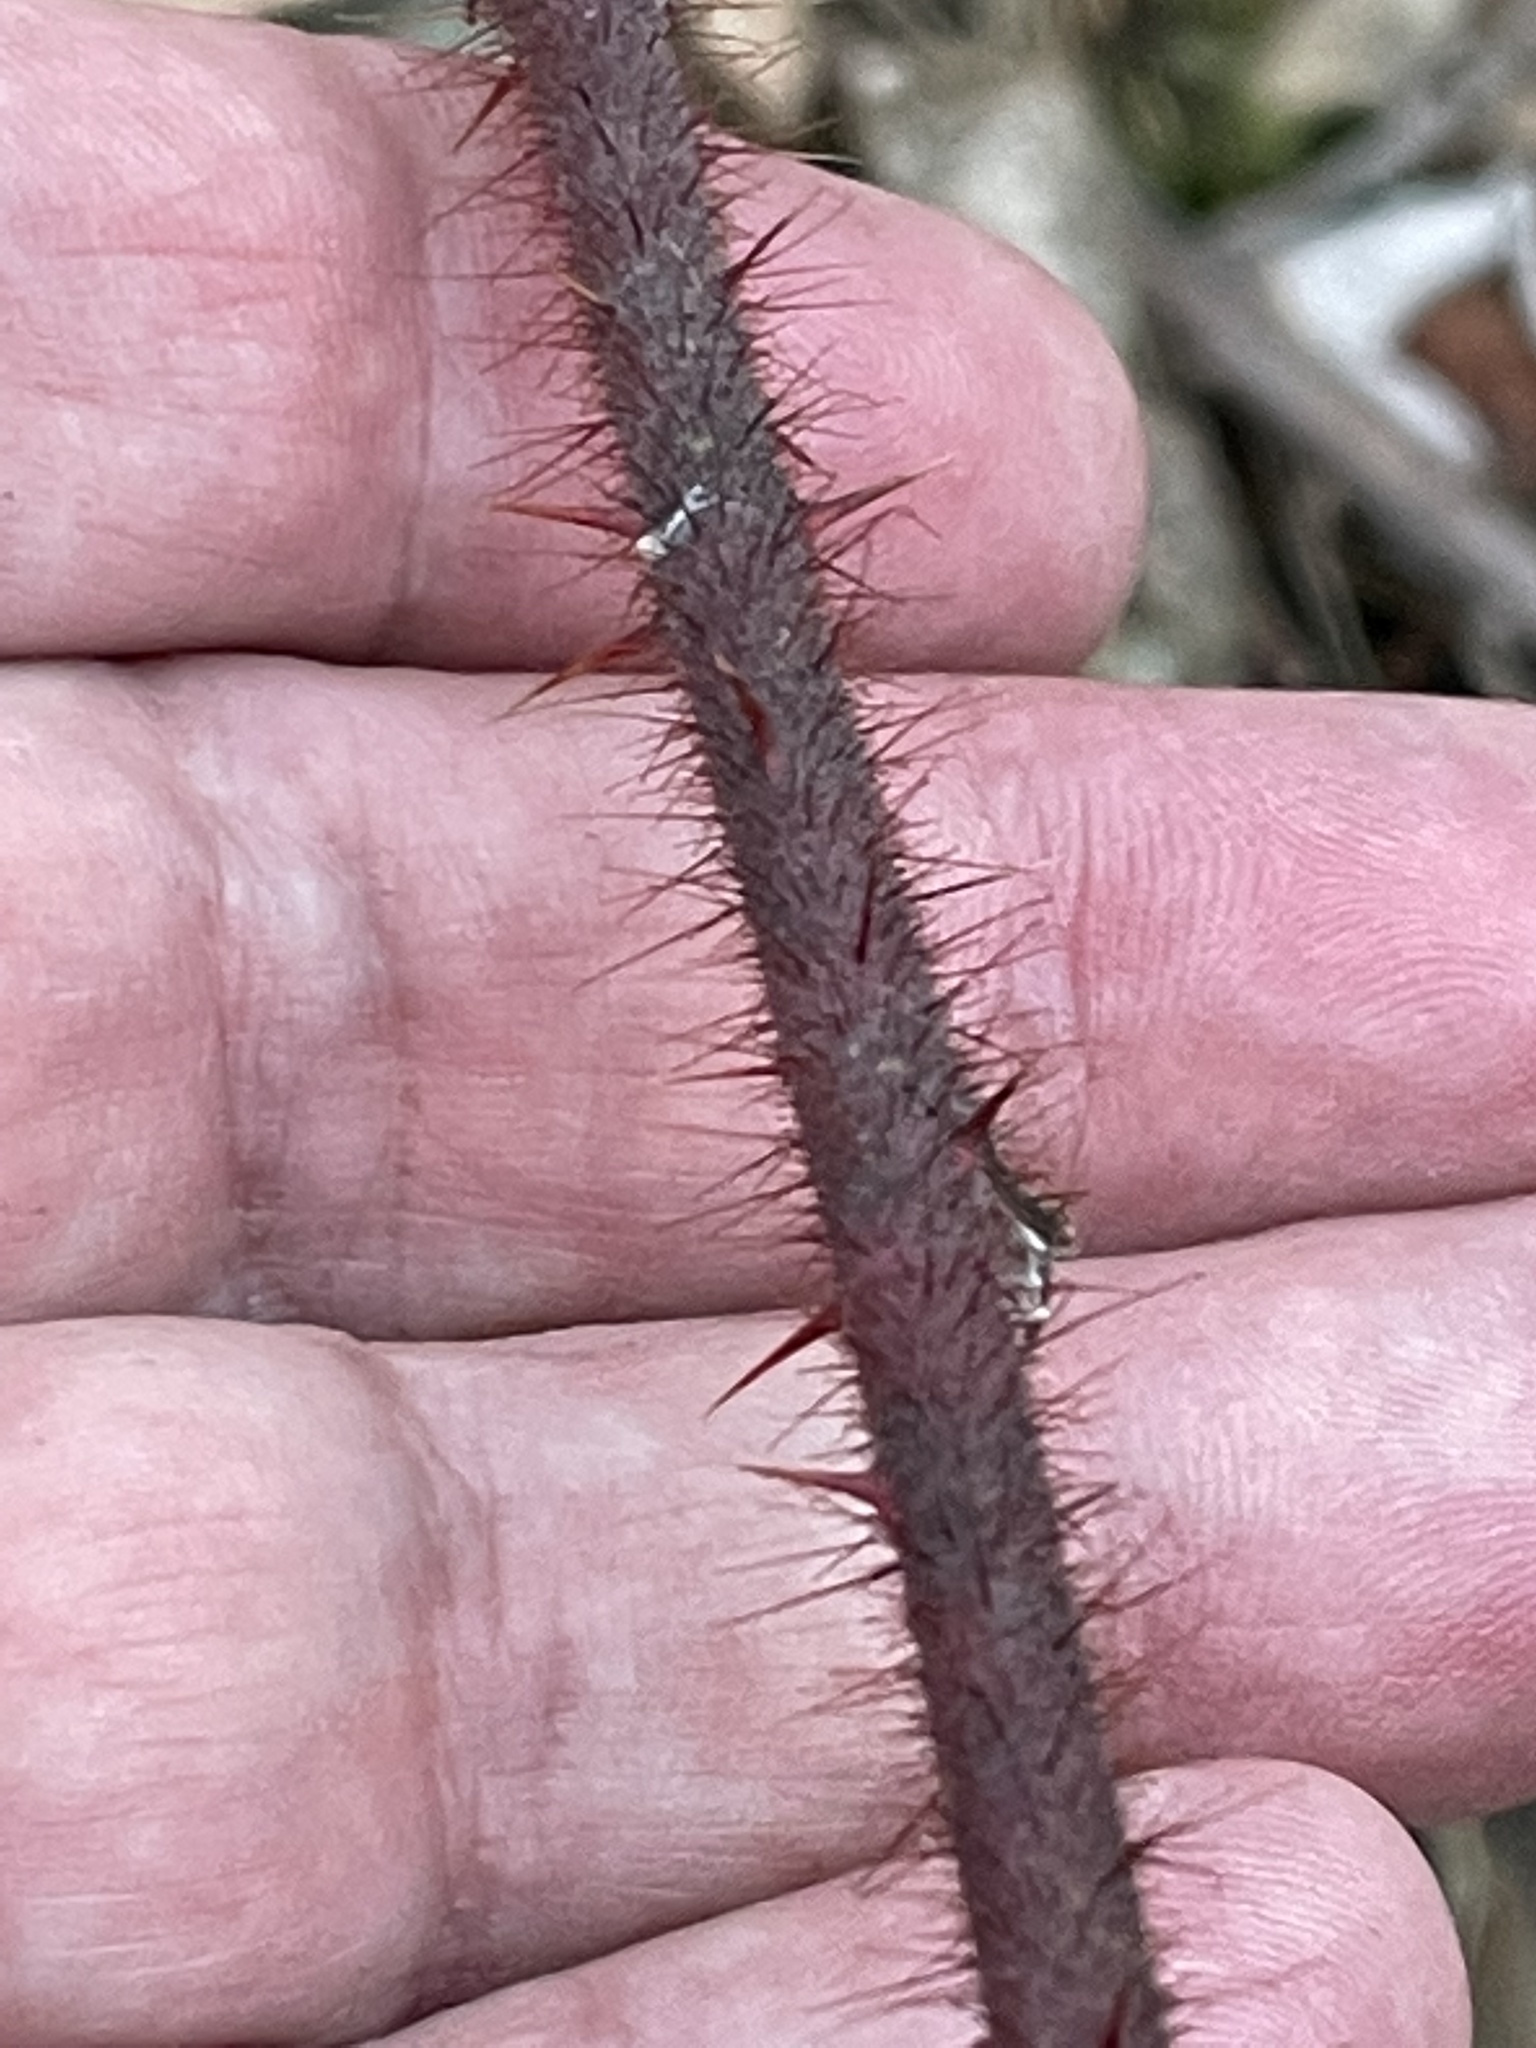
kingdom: Plantae
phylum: Tracheophyta
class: Magnoliopsida
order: Rosales
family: Rosaceae
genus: Rubus
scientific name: Rubus phoenicolasius
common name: Japanese wineberry
